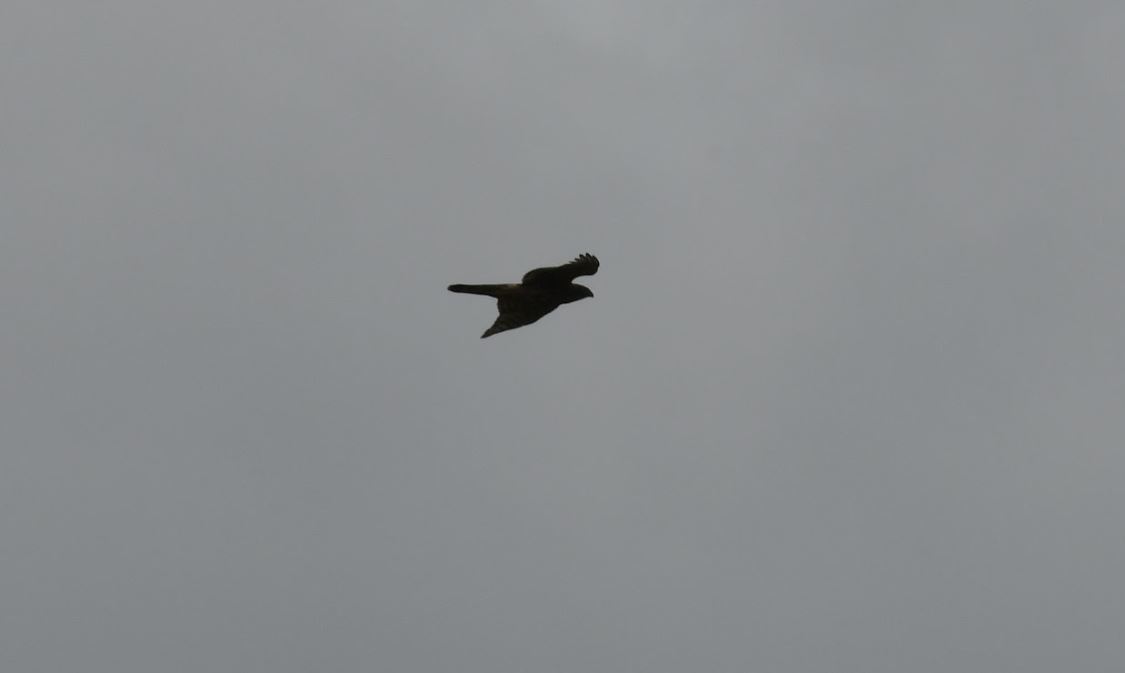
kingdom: Animalia
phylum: Chordata
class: Aves
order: Accipitriformes
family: Accipitridae
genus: Accipiter
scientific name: Accipiter gentilis
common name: Northern goshawk
